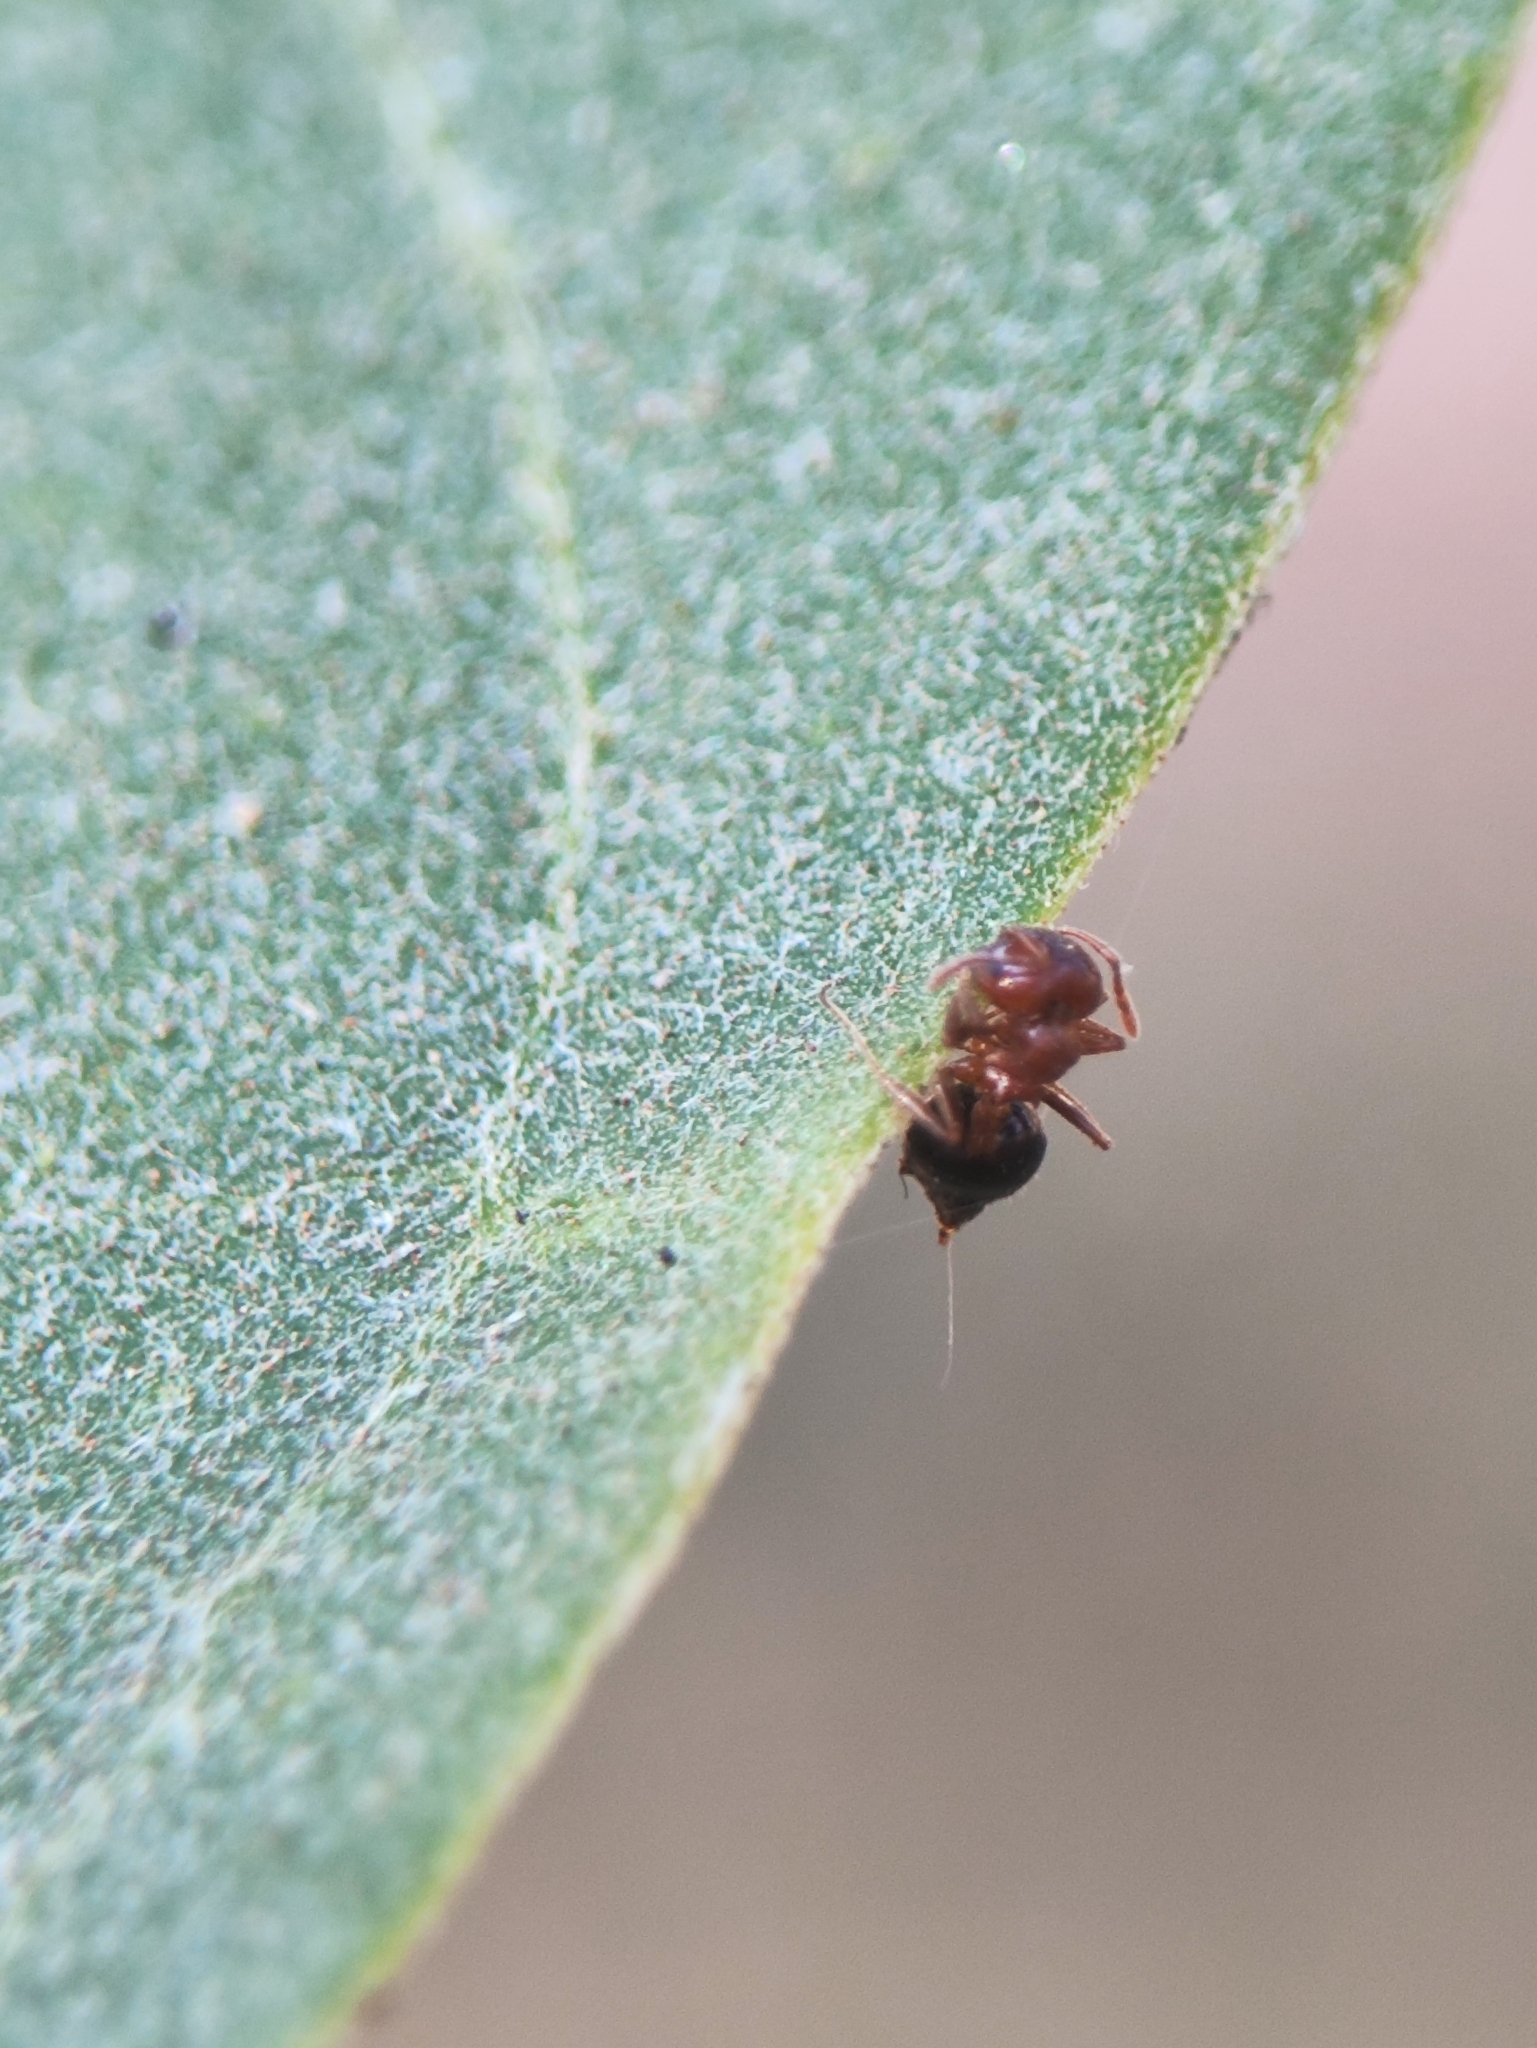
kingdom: Animalia
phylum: Arthropoda
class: Insecta
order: Hymenoptera
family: Formicidae
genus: Crematogaster
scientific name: Crematogaster
